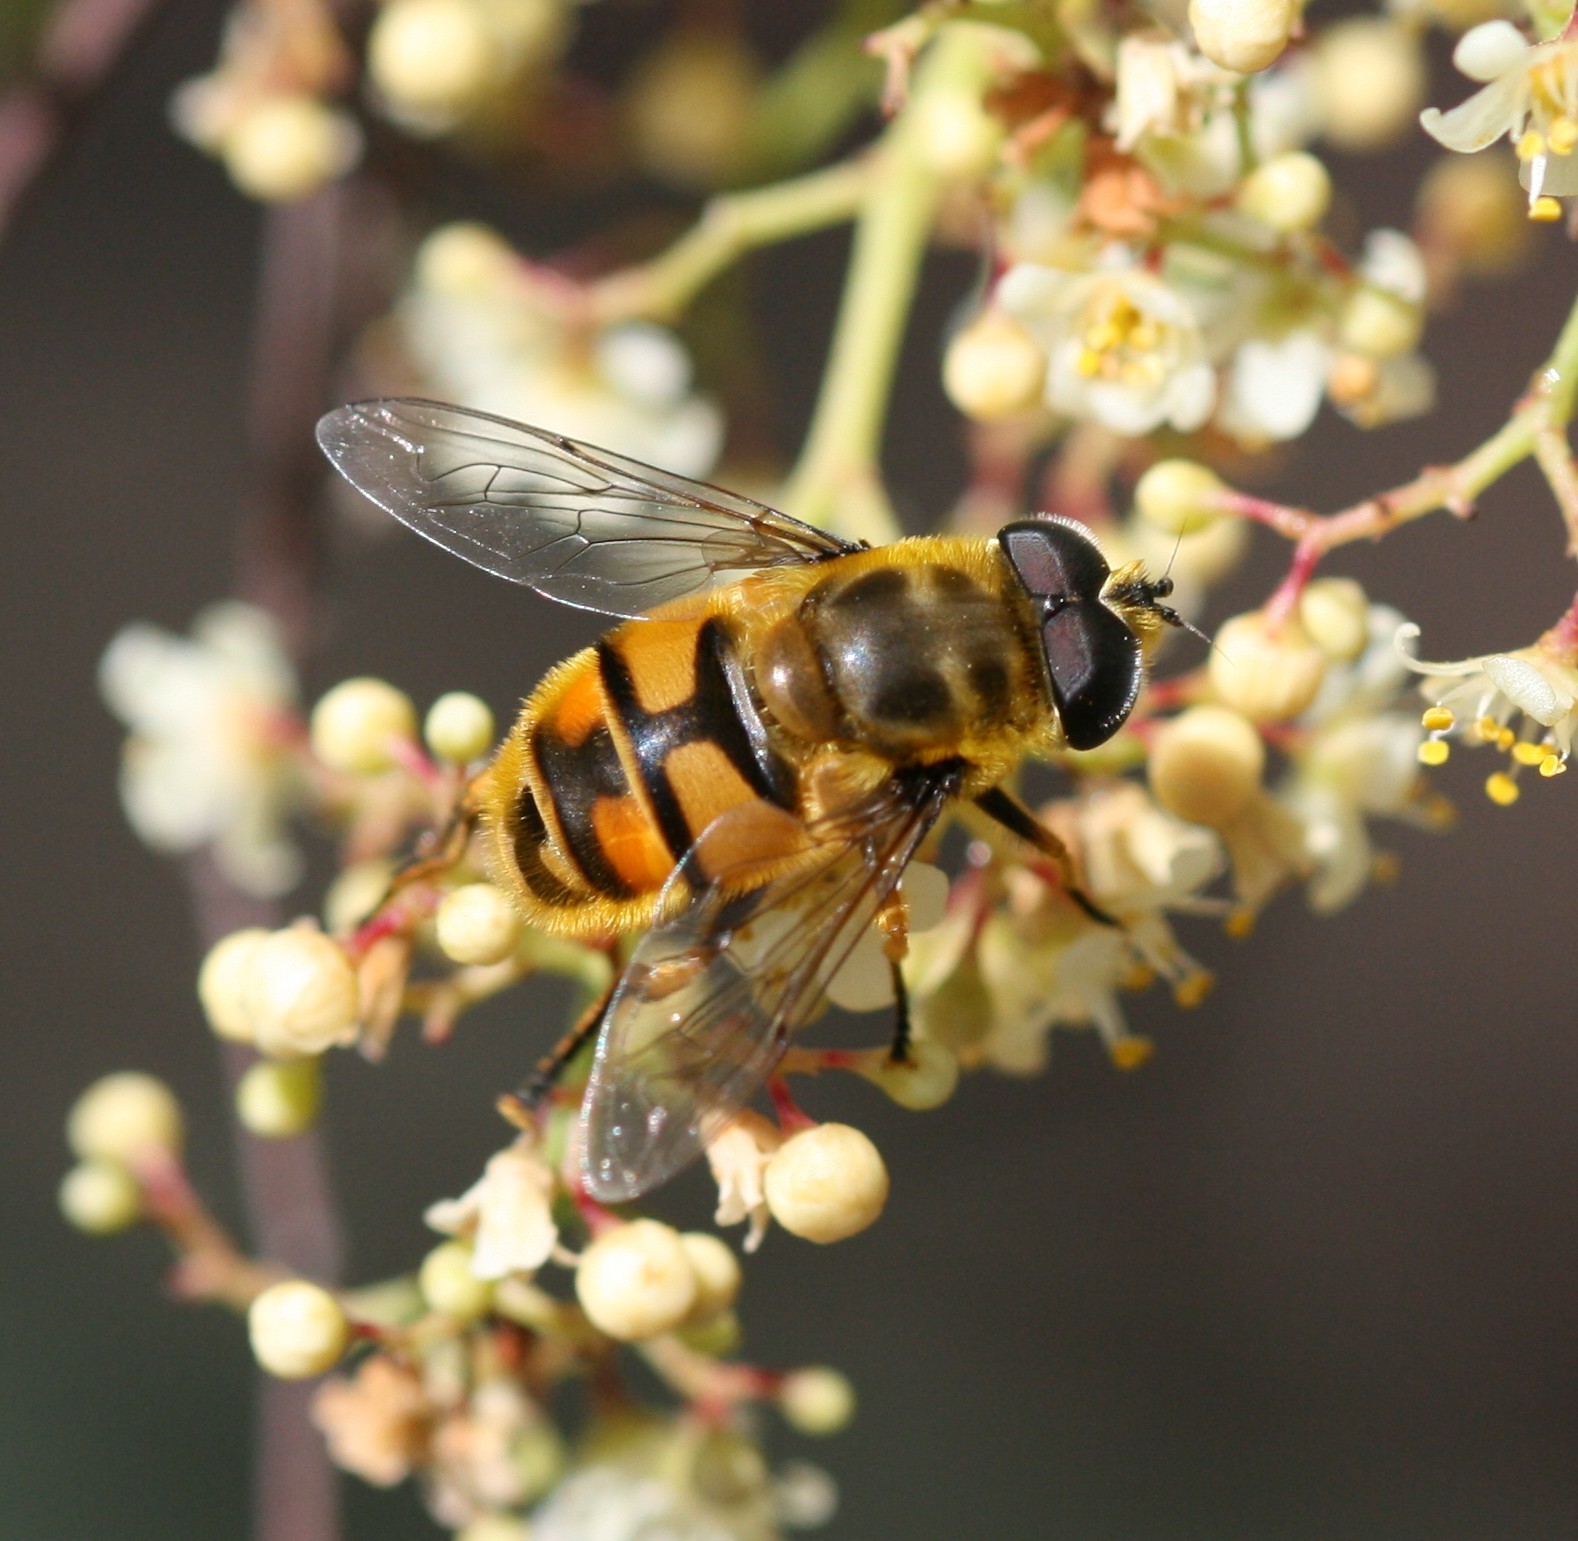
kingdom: Animalia
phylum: Arthropoda
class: Insecta
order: Diptera
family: Syrphidae
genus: Myathropa
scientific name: Myathropa florea
